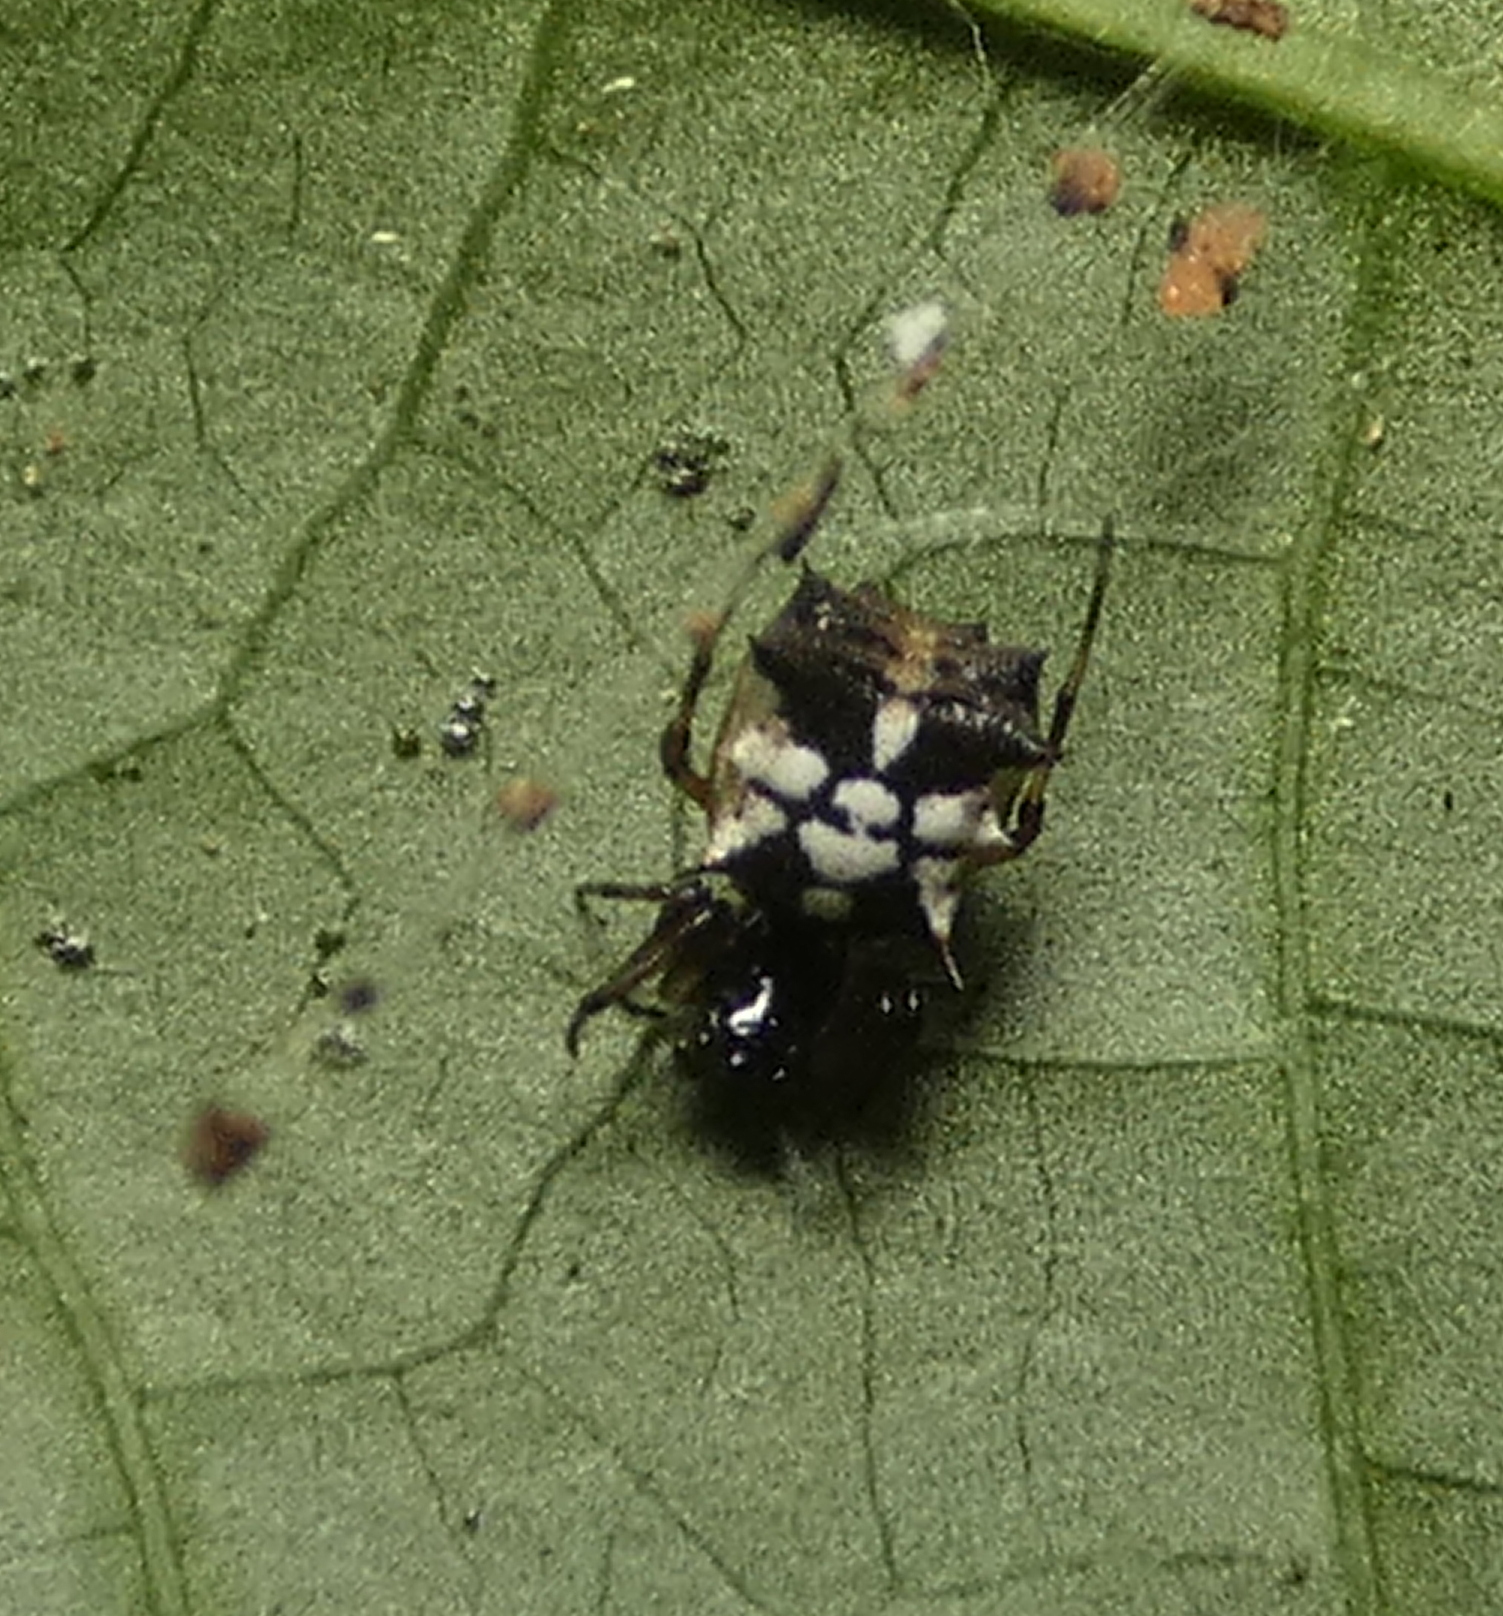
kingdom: Animalia
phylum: Arthropoda
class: Arachnida
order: Araneae
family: Araneidae
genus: Micrathena
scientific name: Micrathena picta
